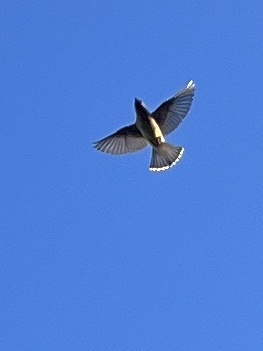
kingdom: Animalia
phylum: Chordata
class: Aves
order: Passeriformes
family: Bombycillidae
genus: Bombycilla
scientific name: Bombycilla cedrorum
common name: Cedar waxwing
